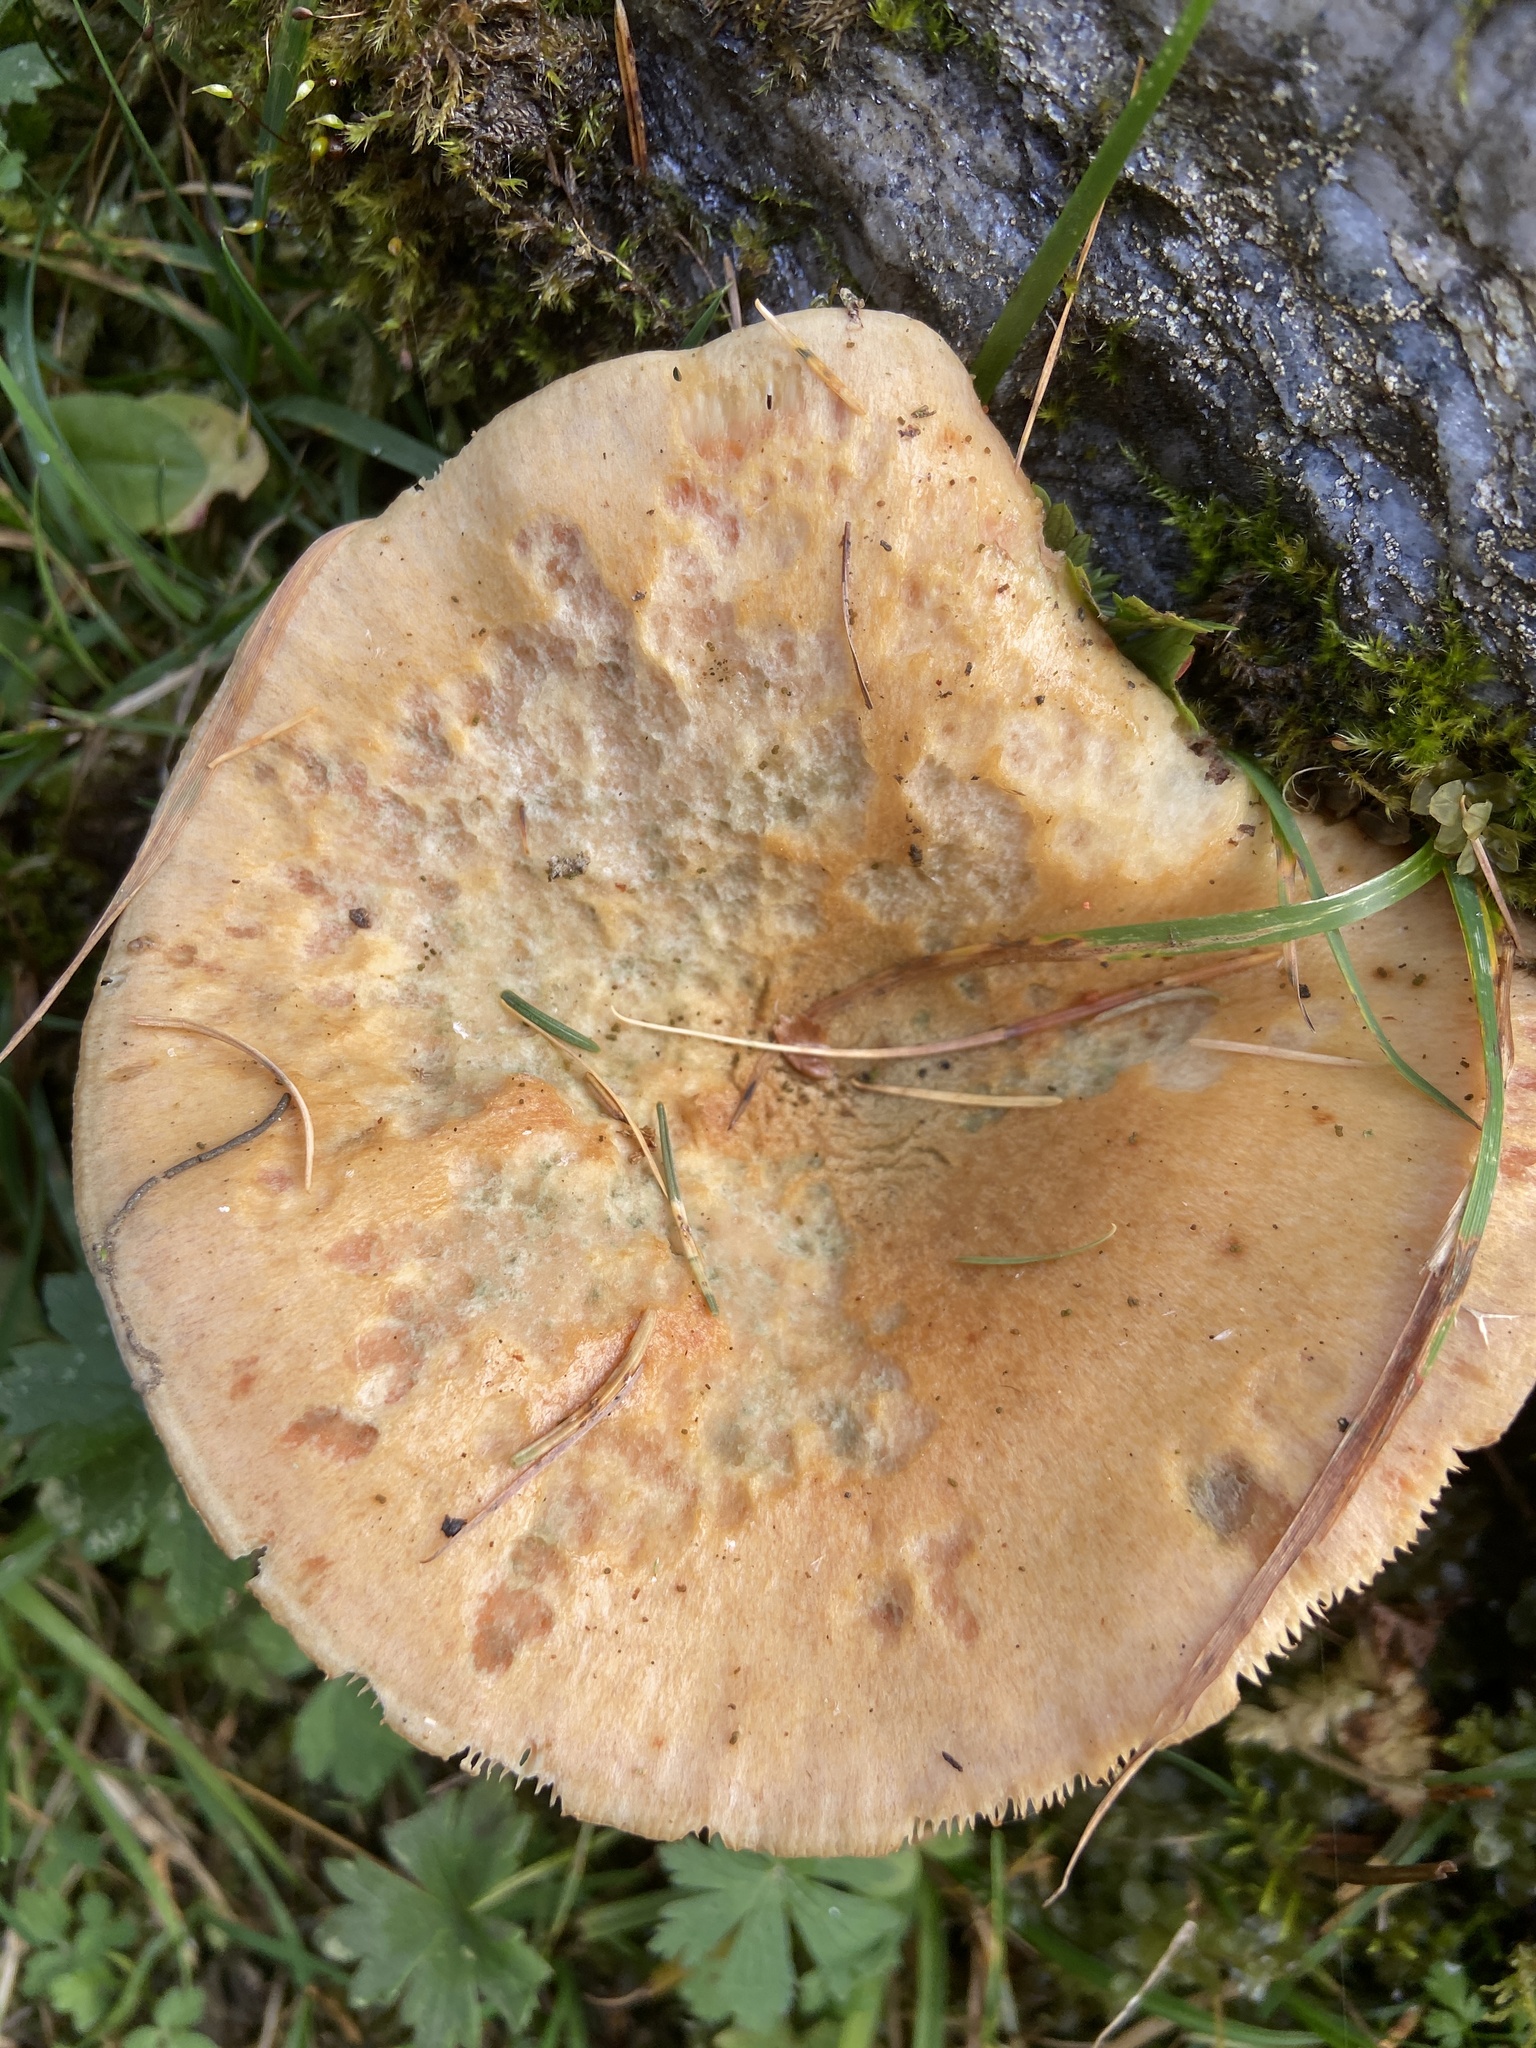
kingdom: Fungi
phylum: Basidiomycota
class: Agaricomycetes
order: Russulales
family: Russulaceae
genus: Lactarius
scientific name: Lactarius deterrimus
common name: False saffron milkcap
